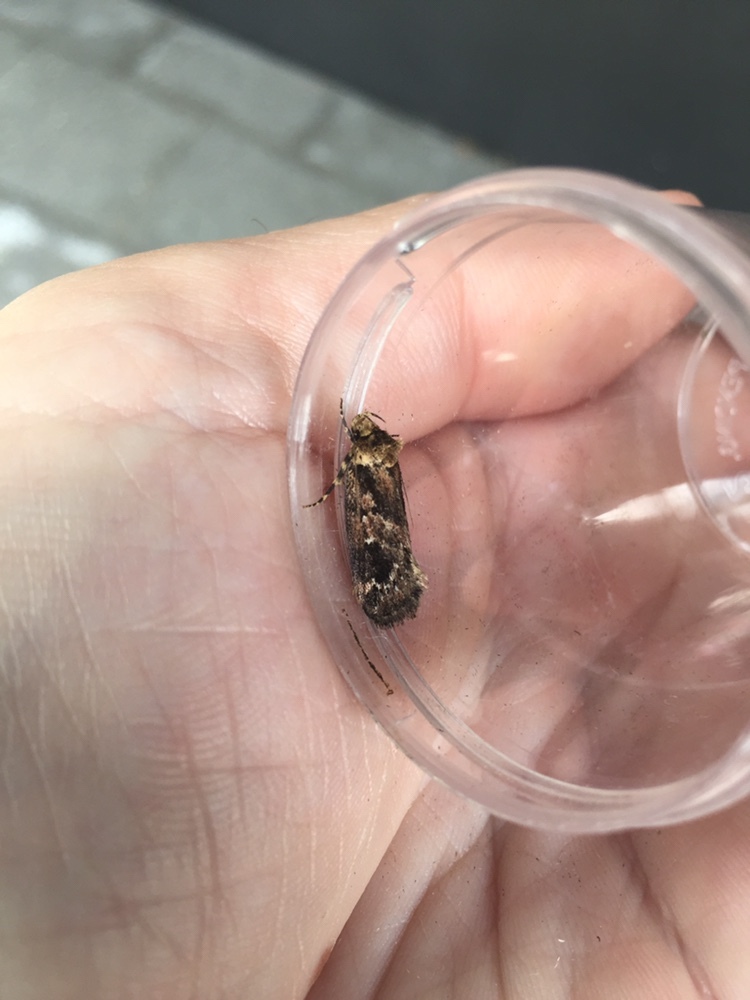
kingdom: Animalia
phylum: Arthropoda
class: Insecta
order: Lepidoptera
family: Oecophoridae
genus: Barea
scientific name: Barea consignatella
